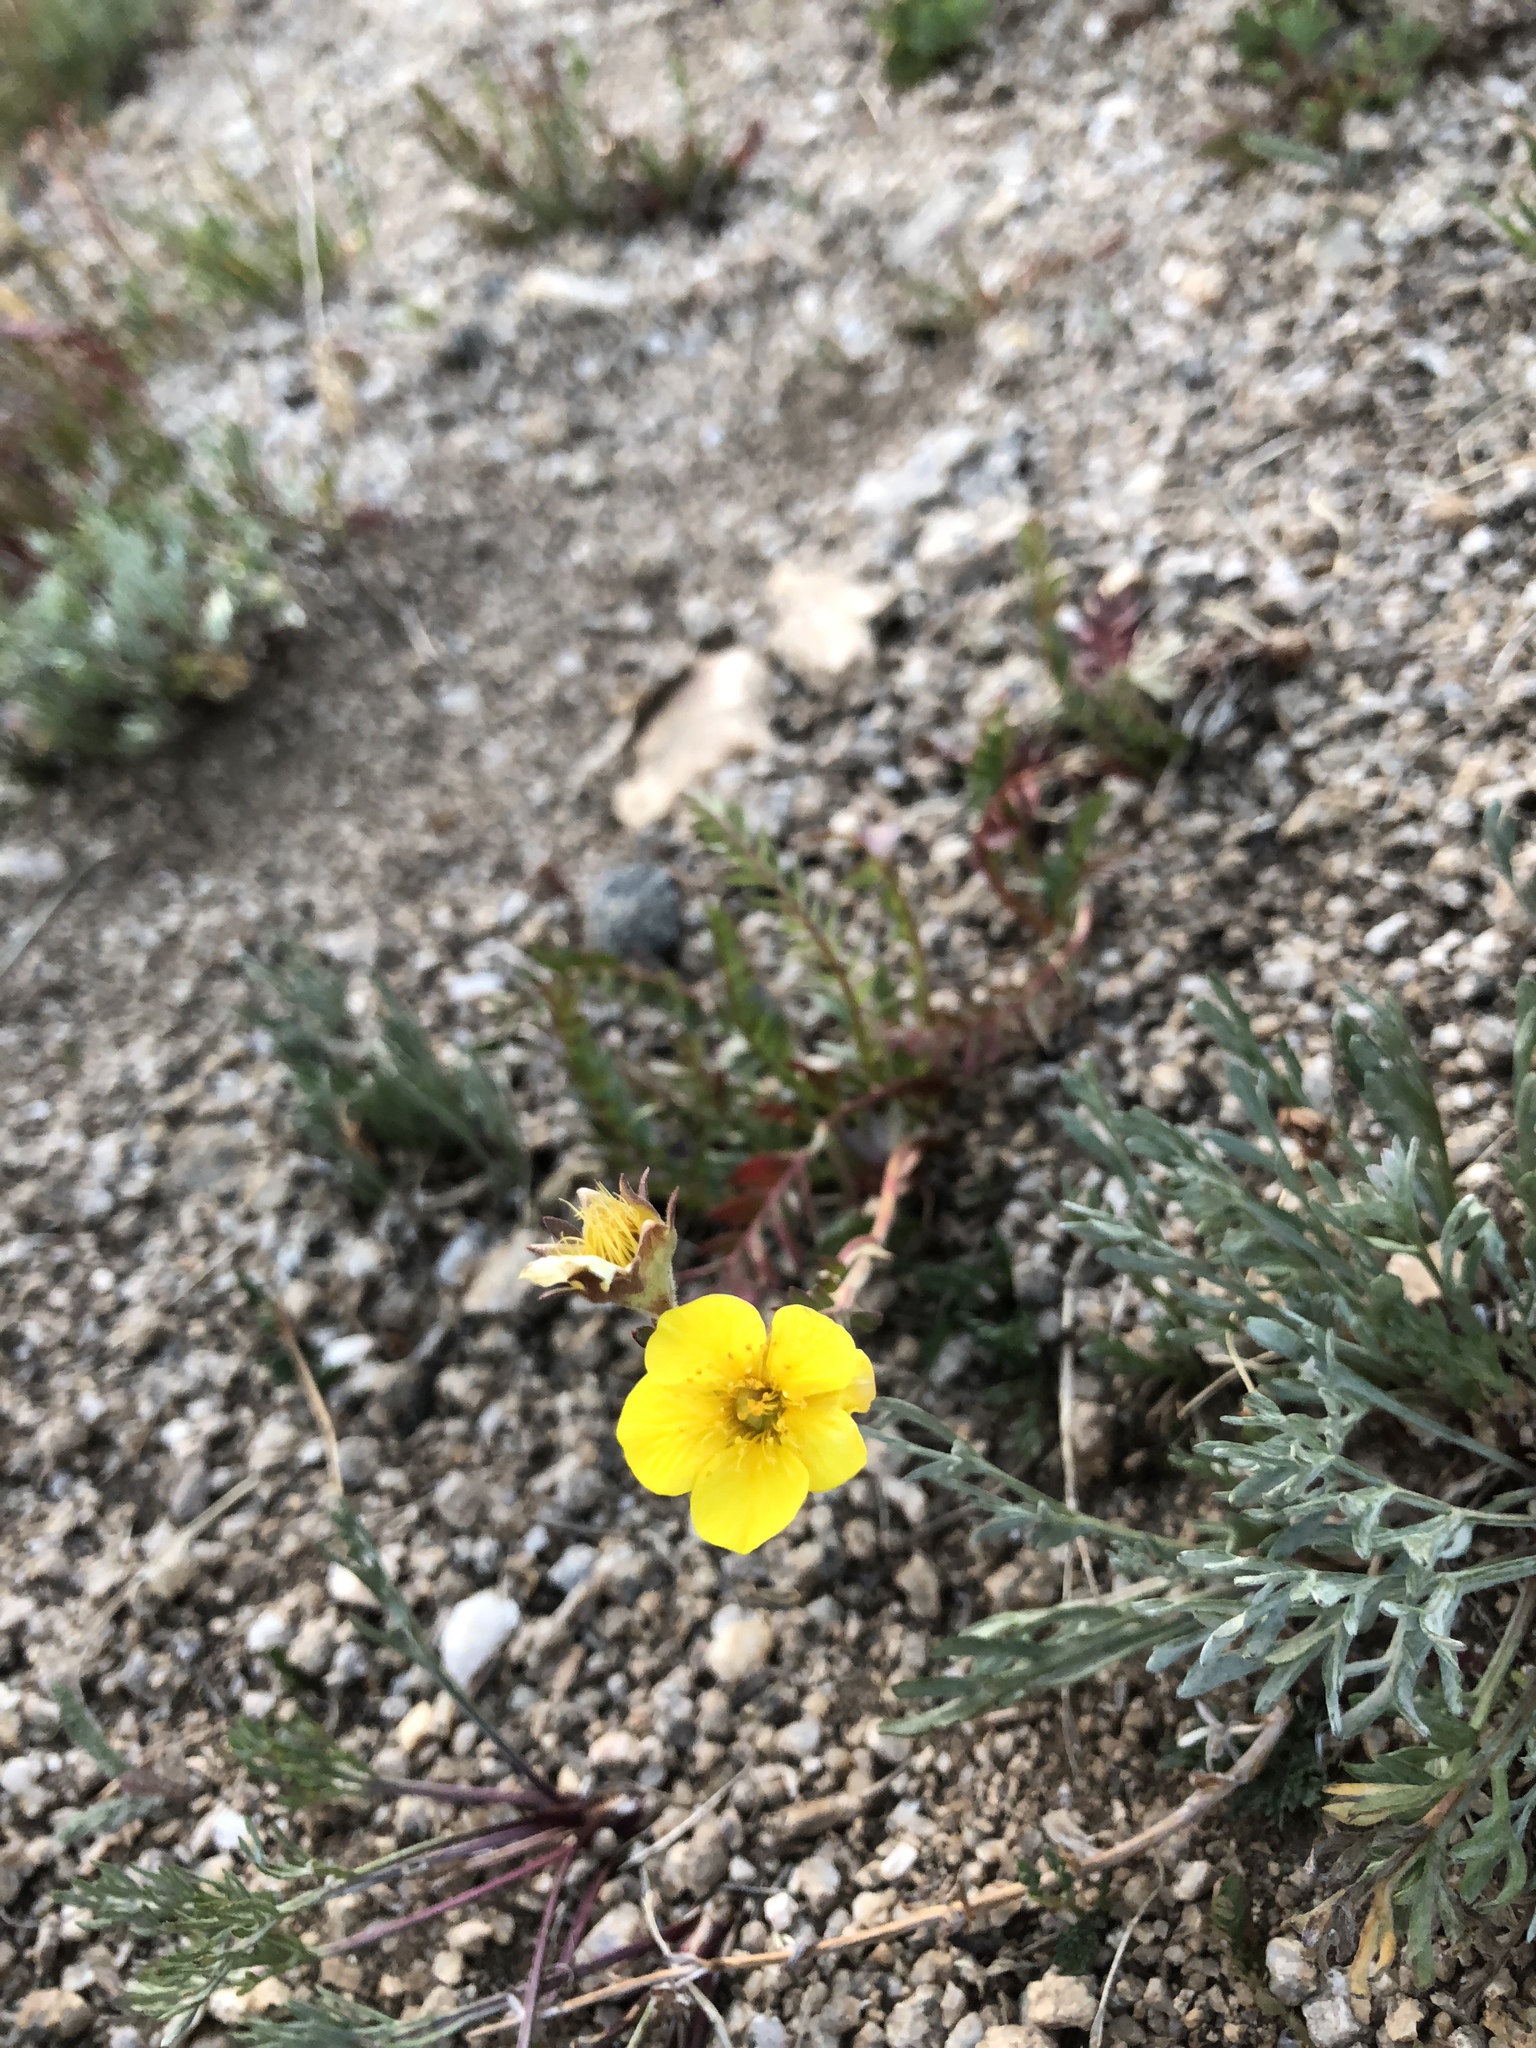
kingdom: Plantae
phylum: Tracheophyta
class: Magnoliopsida
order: Rosales
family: Rosaceae
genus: Geum
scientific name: Geum rossii
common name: Alpine avens
